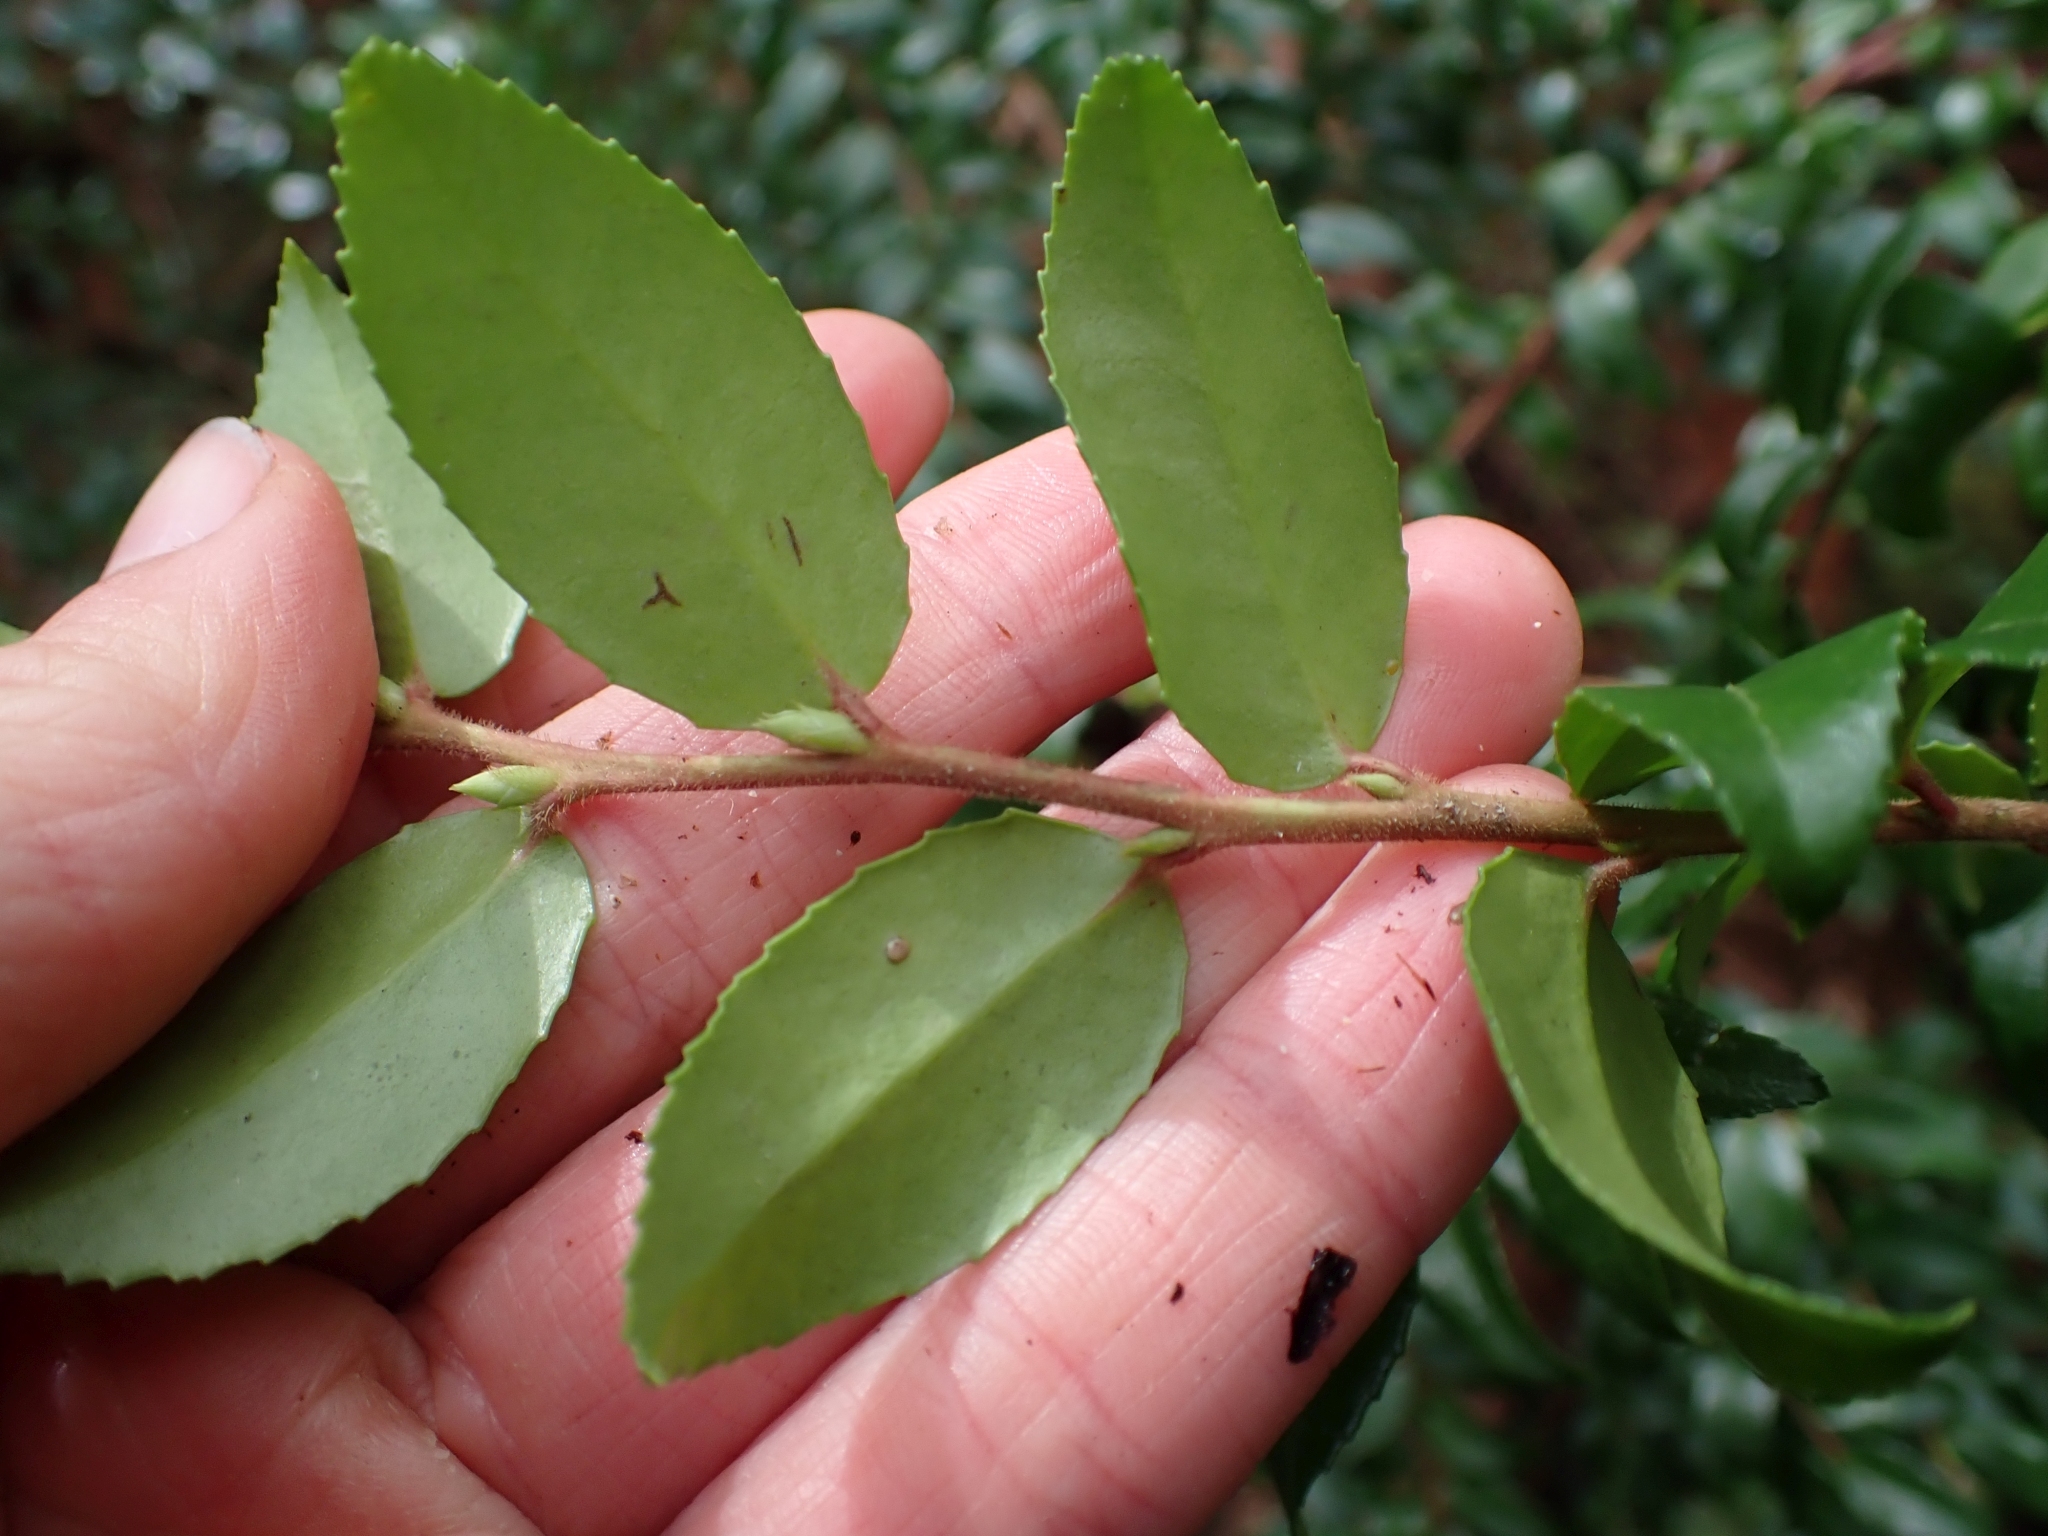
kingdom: Plantae
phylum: Tracheophyta
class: Magnoliopsida
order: Ericales
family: Ericaceae
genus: Vaccinium
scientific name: Vaccinium ovatum
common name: California-huckleberry
